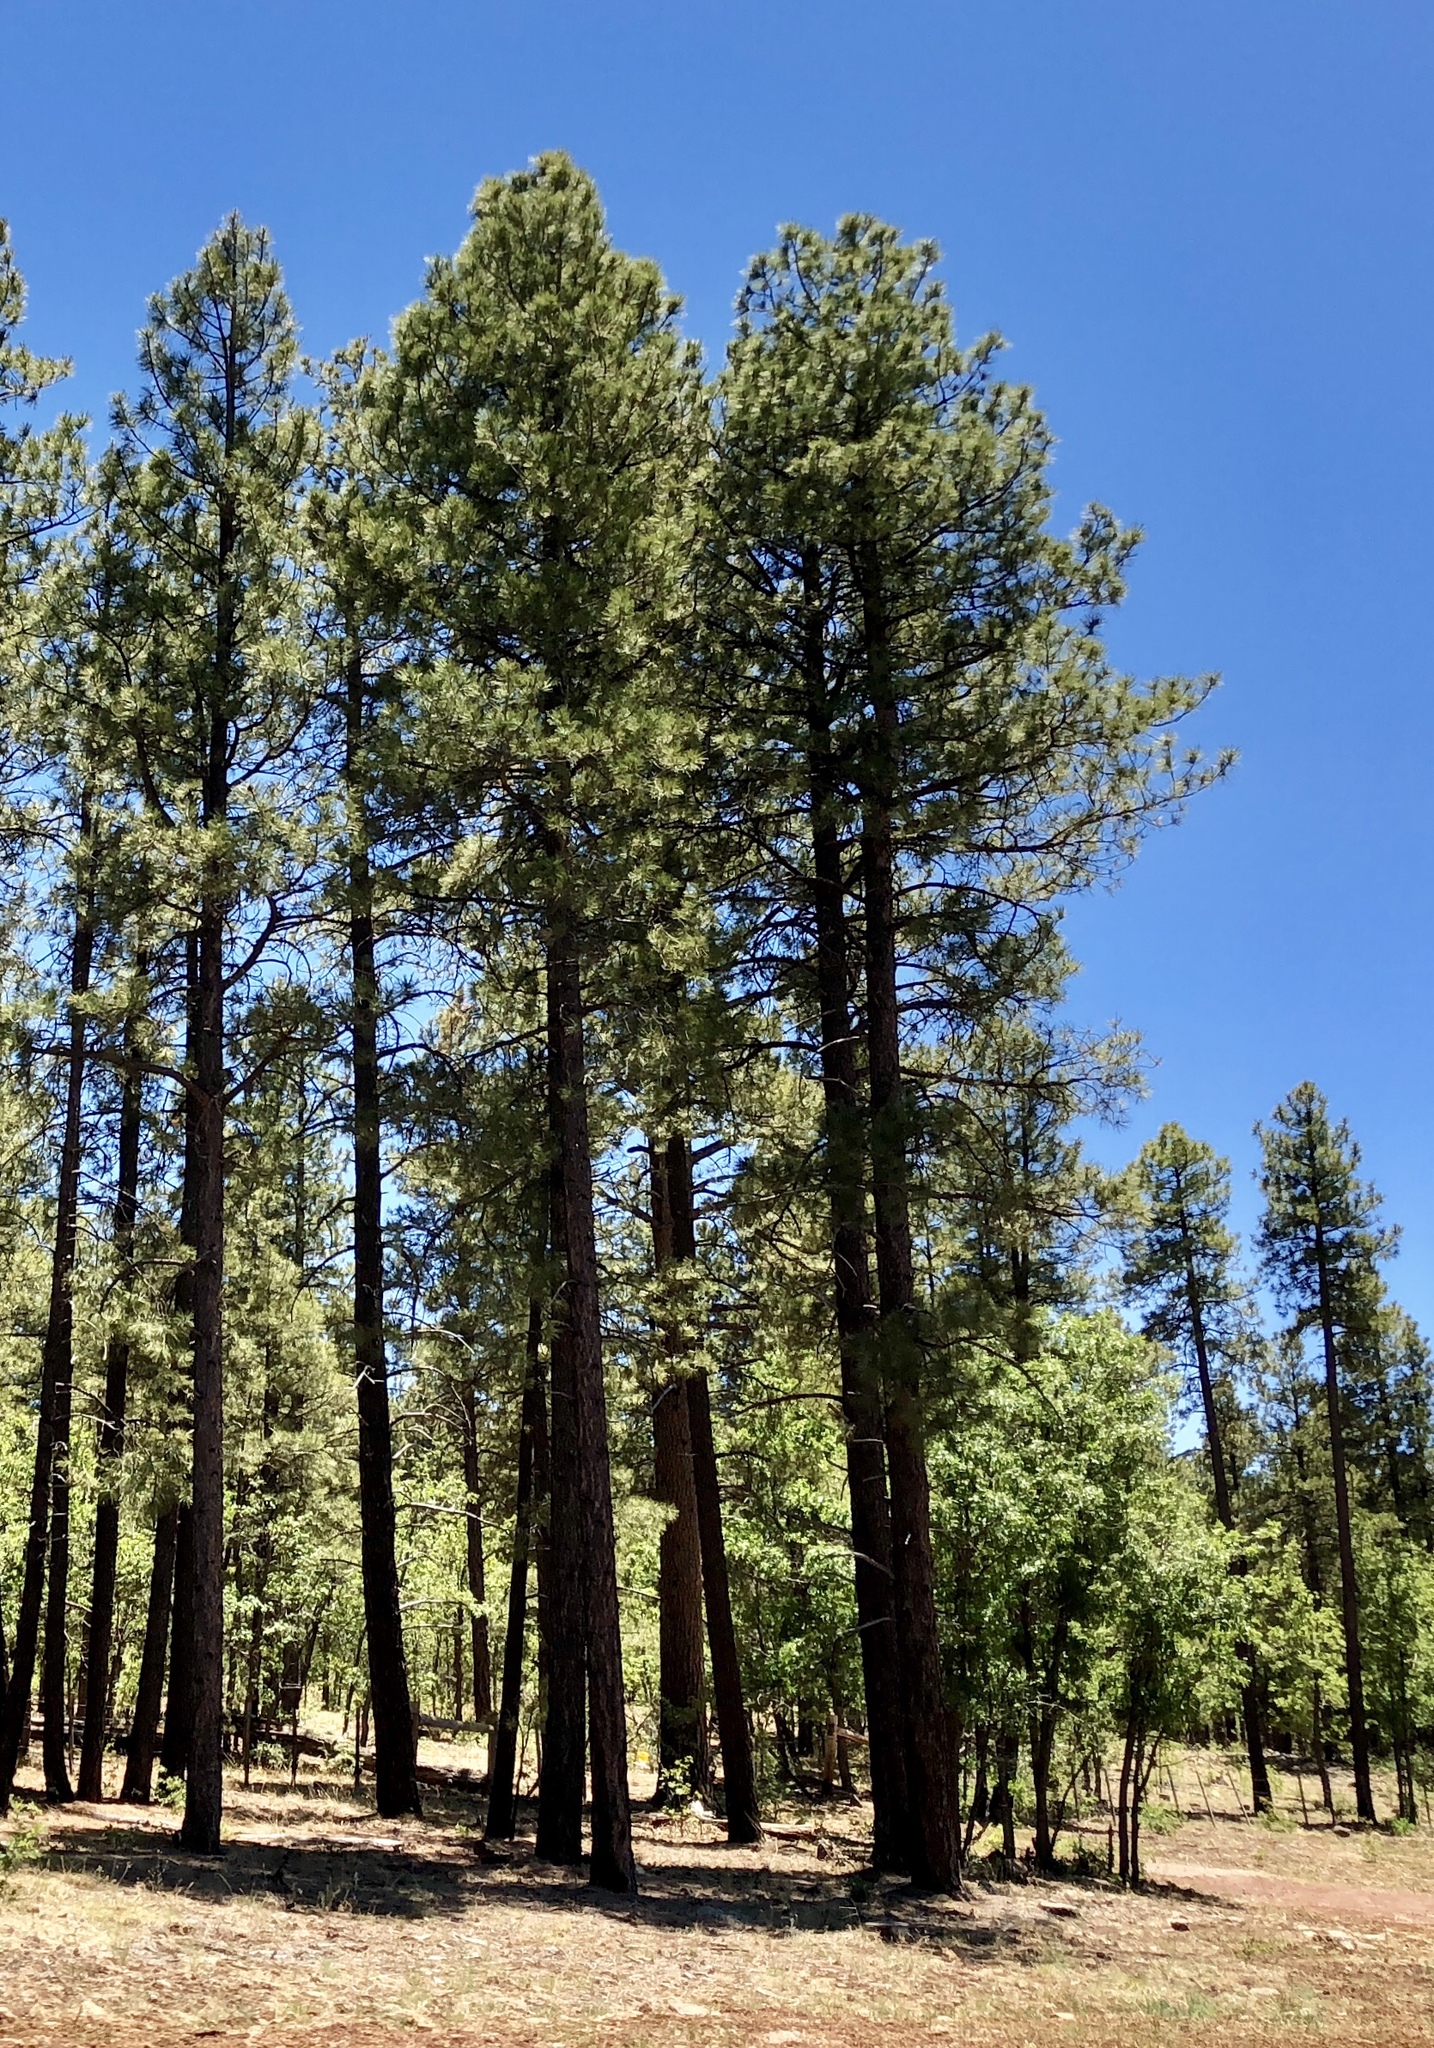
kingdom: Plantae
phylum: Tracheophyta
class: Pinopsida
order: Pinales
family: Pinaceae
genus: Pinus
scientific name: Pinus ponderosa
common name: Western yellow-pine
